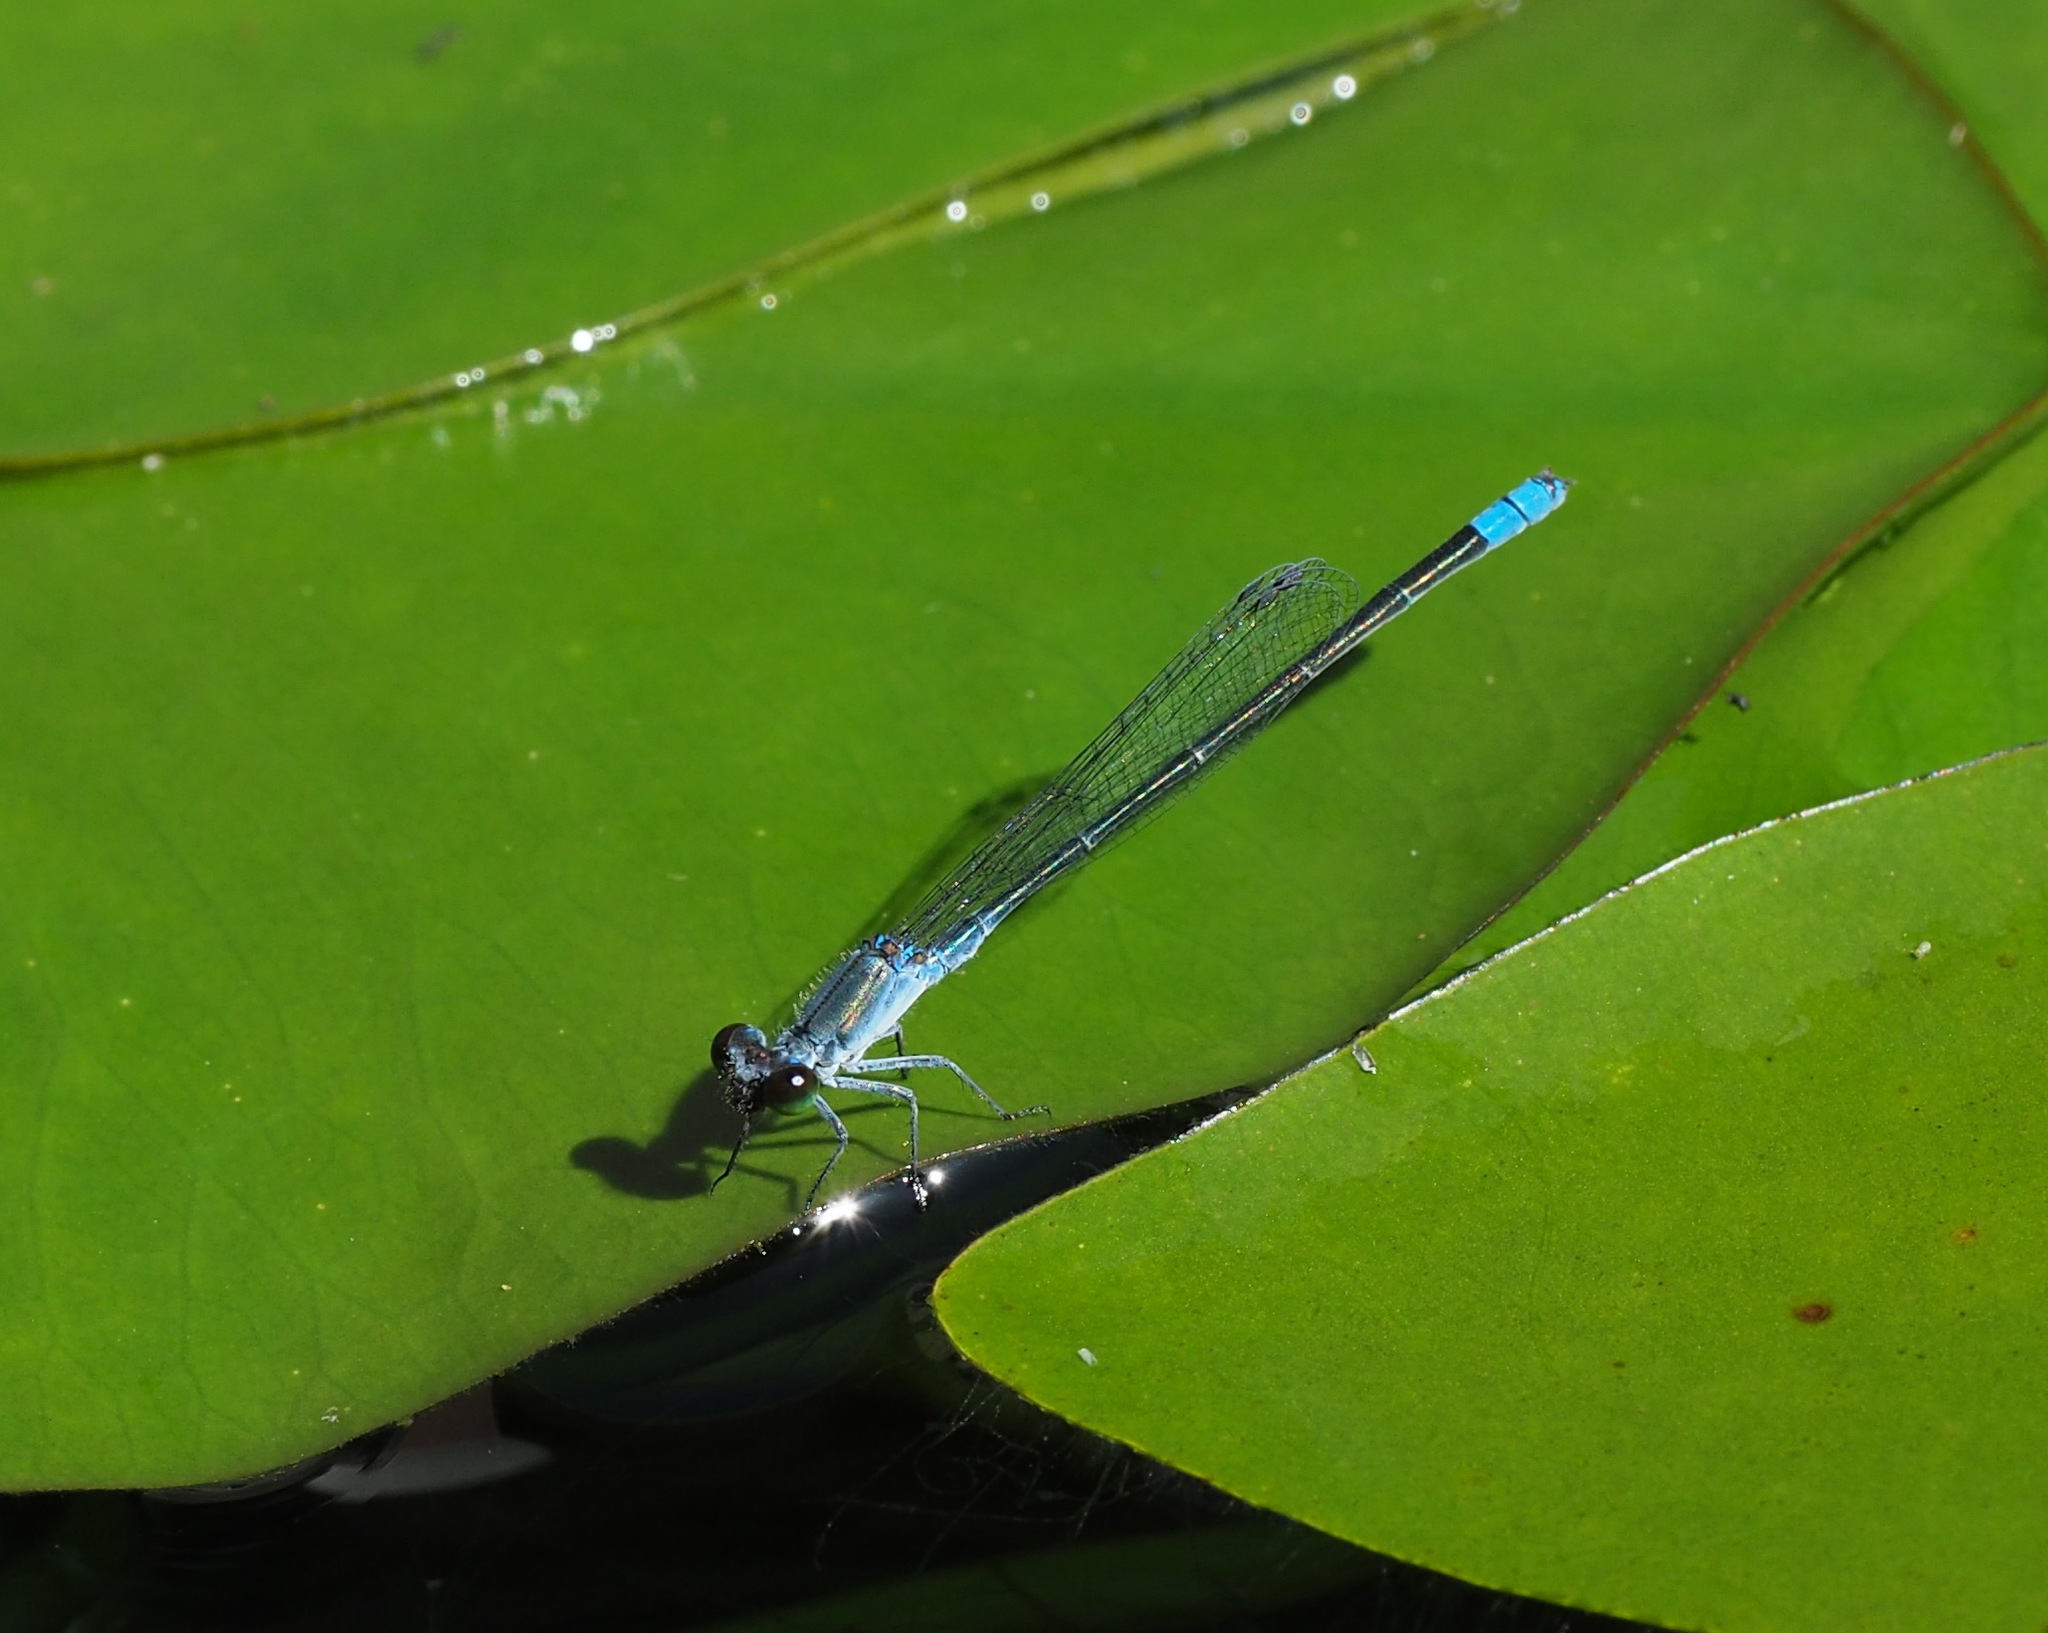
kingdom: Animalia
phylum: Arthropoda
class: Insecta
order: Odonata
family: Coenagrionidae
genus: Paracercion
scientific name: Paracercion calamorum
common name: Dusky lilysquatter
